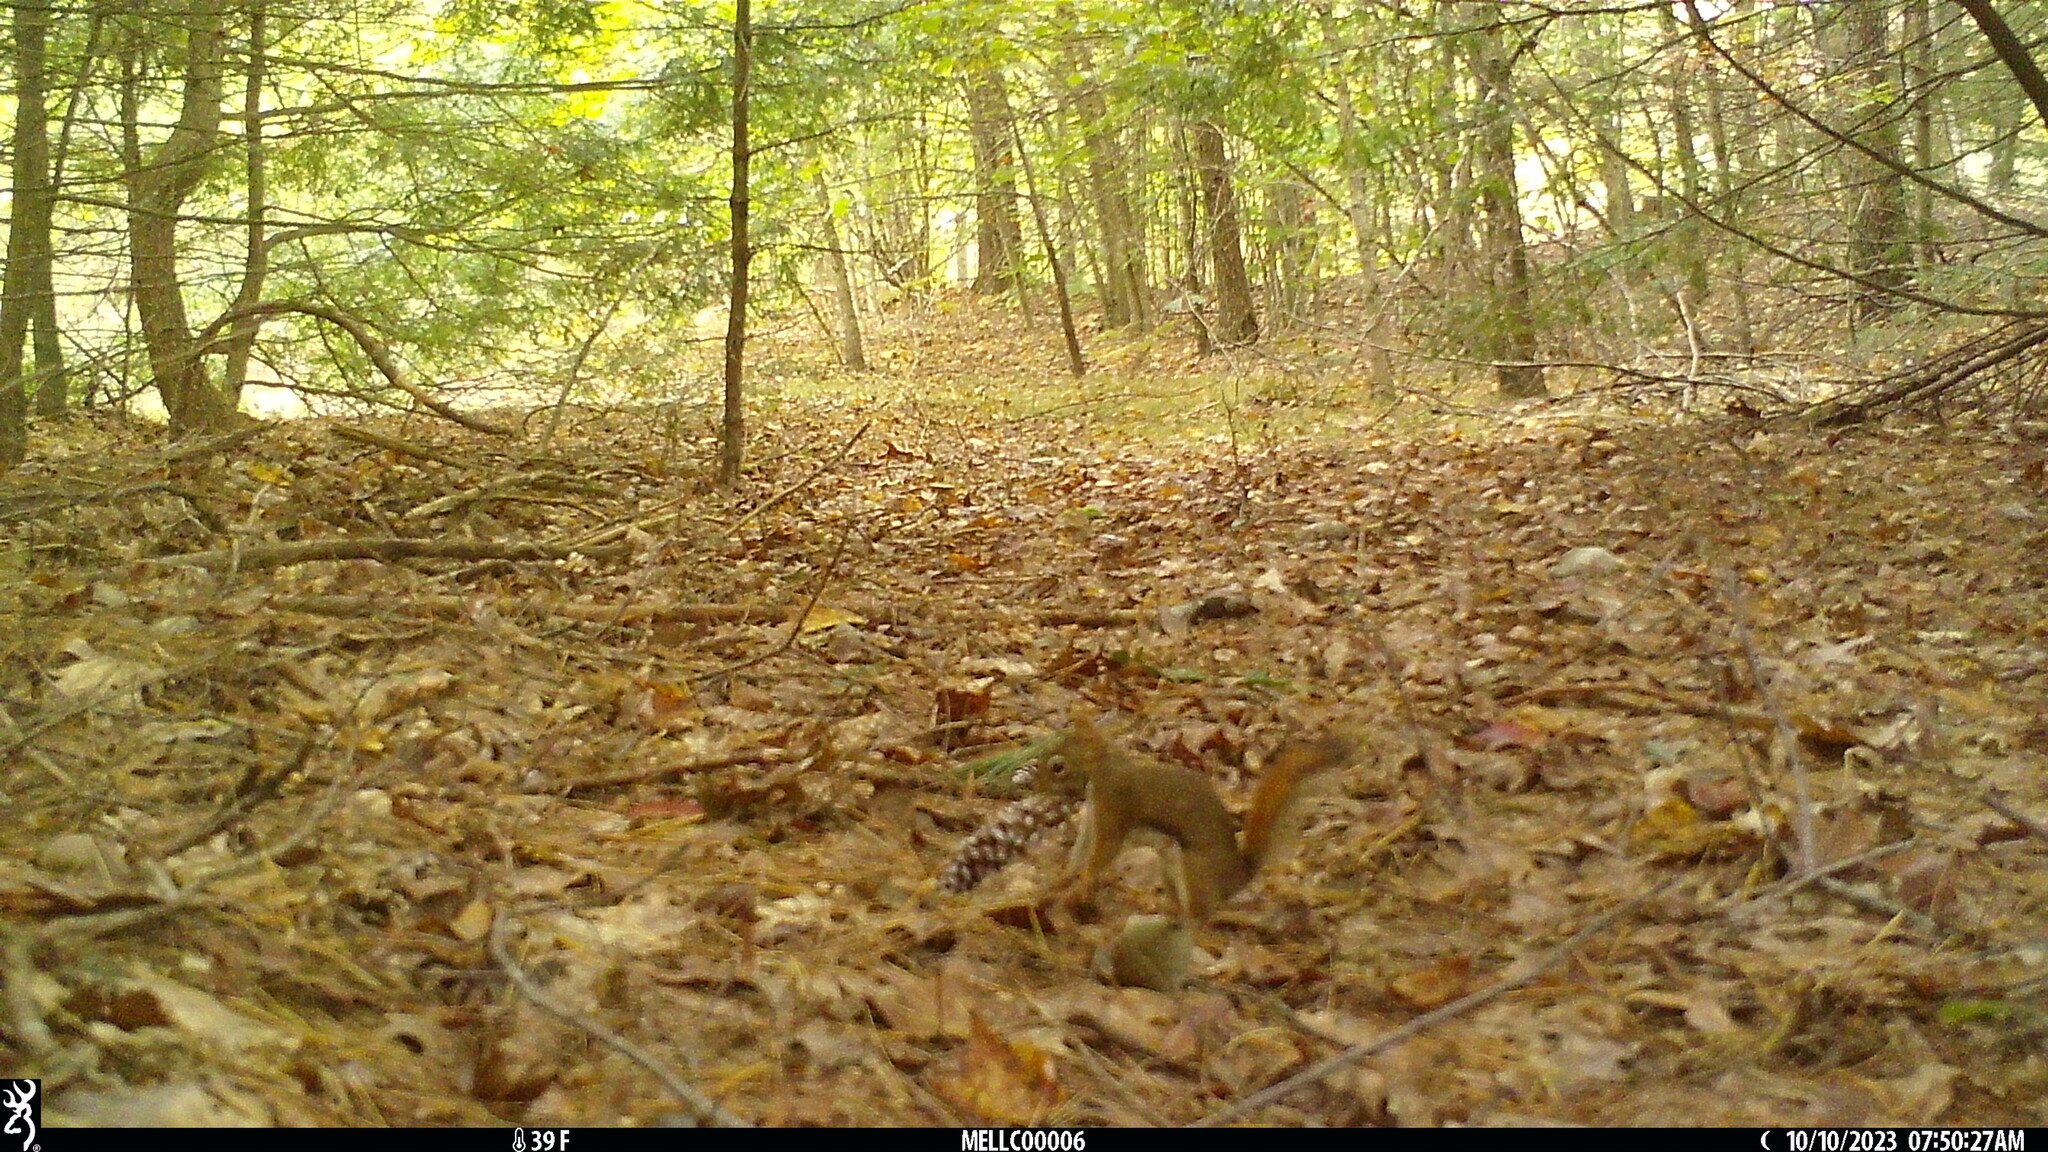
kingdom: Animalia
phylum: Chordata
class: Mammalia
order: Rodentia
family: Sciuridae
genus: Tamiasciurus
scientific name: Tamiasciurus hudsonicus
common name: Red squirrel
